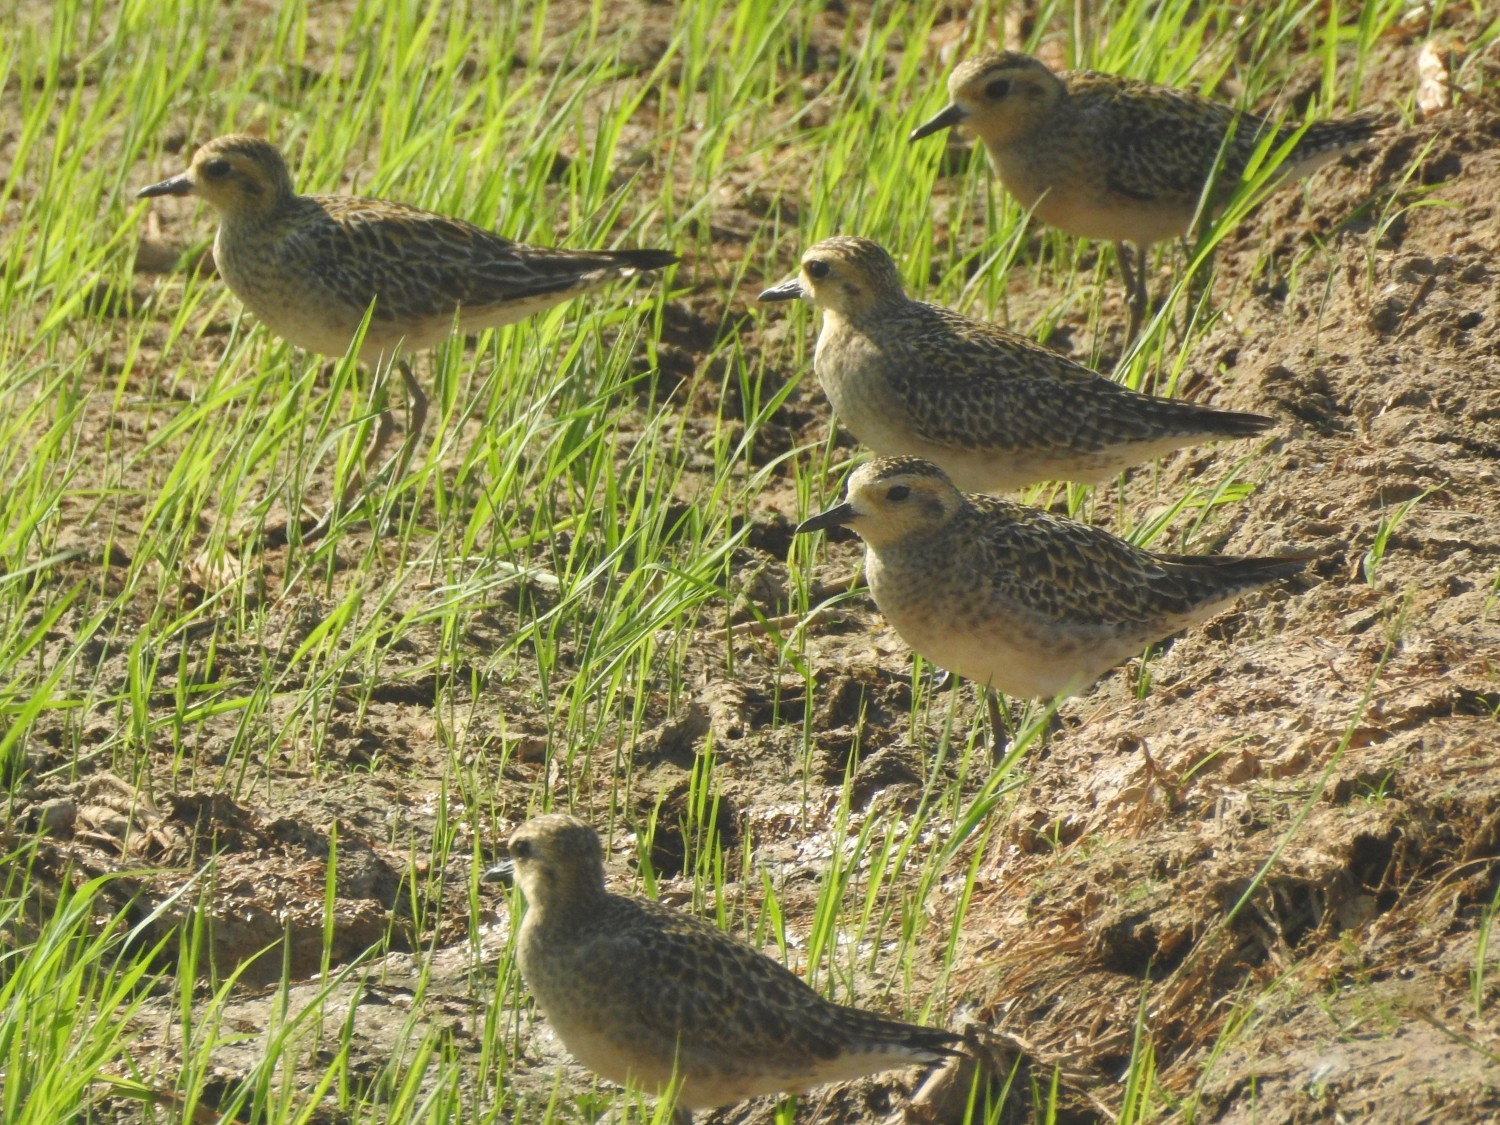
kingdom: Animalia
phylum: Chordata
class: Aves
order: Charadriiformes
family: Charadriidae
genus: Pluvialis
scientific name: Pluvialis fulva
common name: Pacific golden plover
